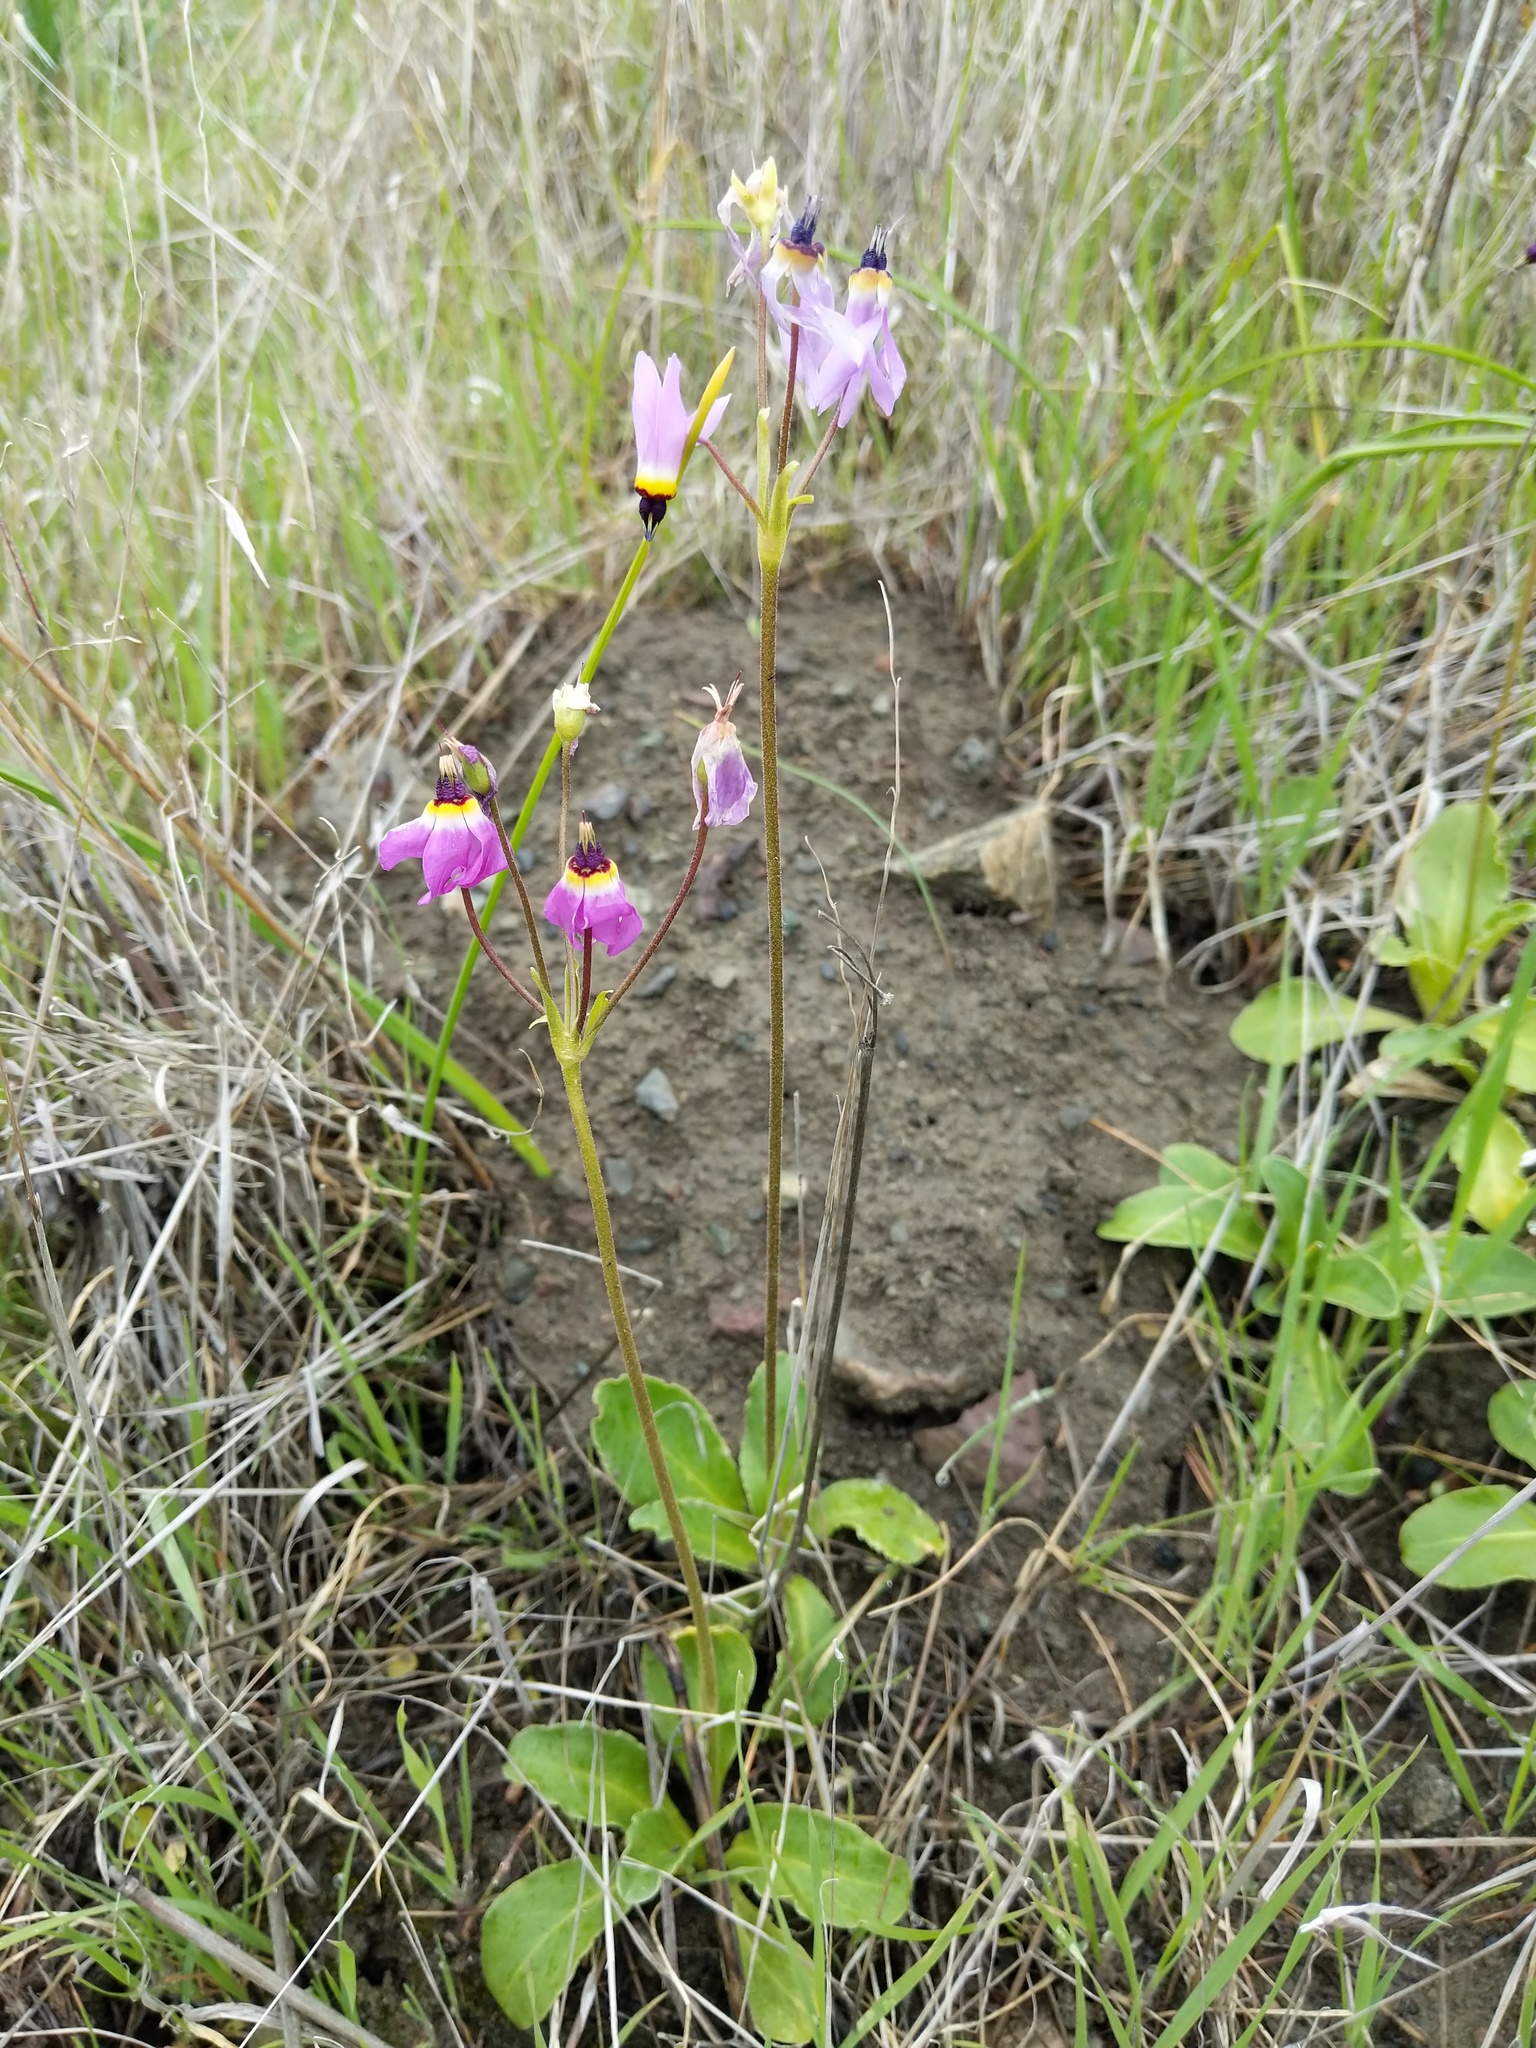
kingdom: Plantae
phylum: Tracheophyta
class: Magnoliopsida
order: Ericales
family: Primulaceae
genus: Dodecatheon
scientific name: Dodecatheon clevelandii
